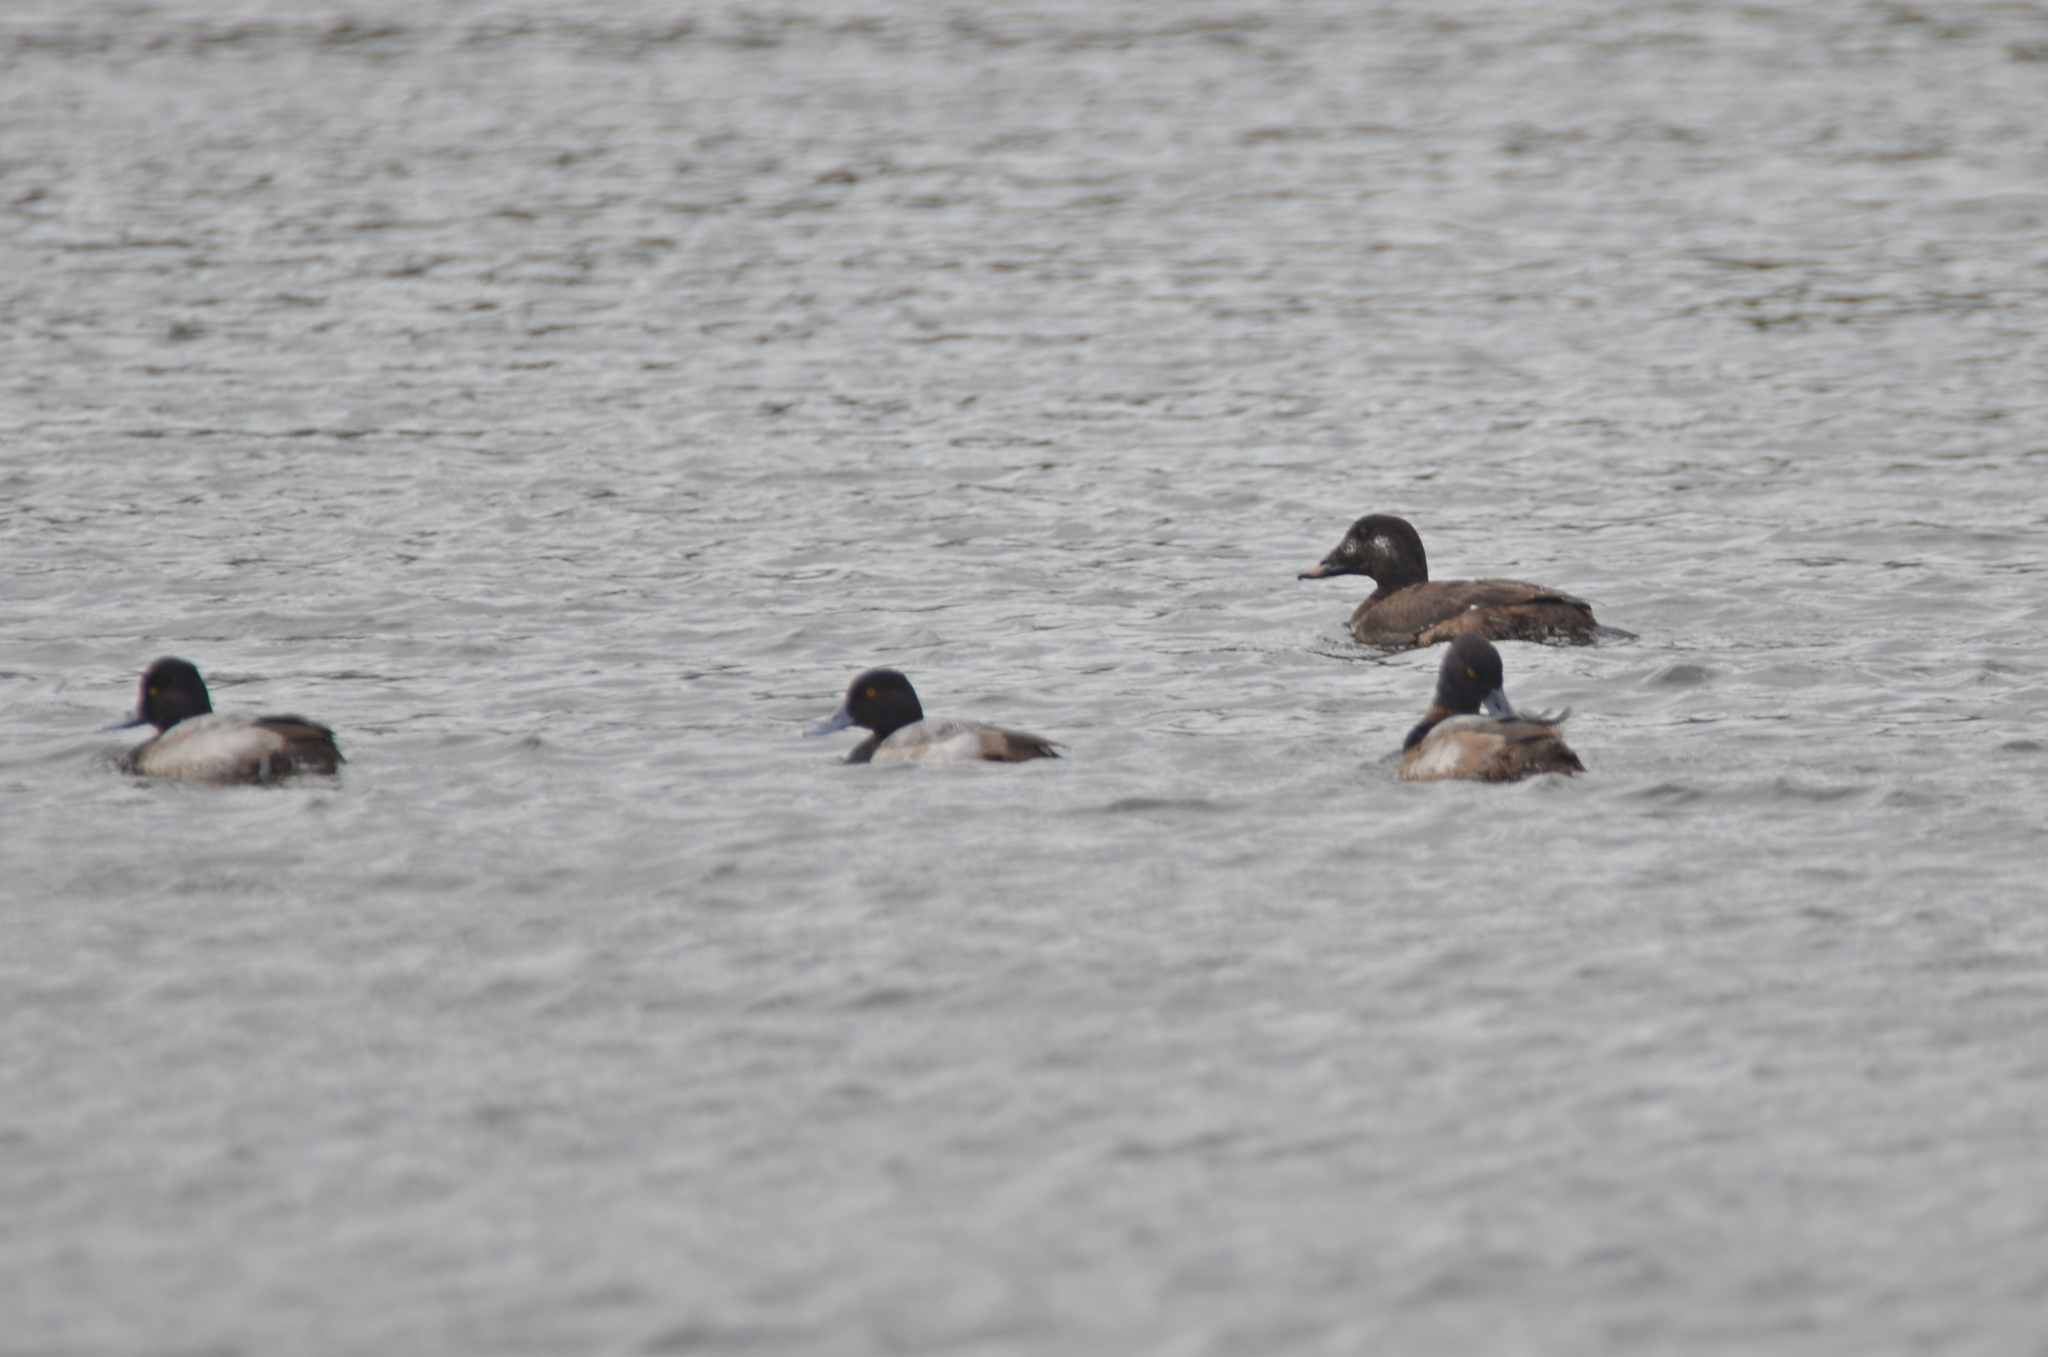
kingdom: Animalia
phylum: Chordata
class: Aves
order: Anseriformes
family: Anatidae
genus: Melanitta
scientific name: Melanitta deglandi
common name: White-winged scoter
